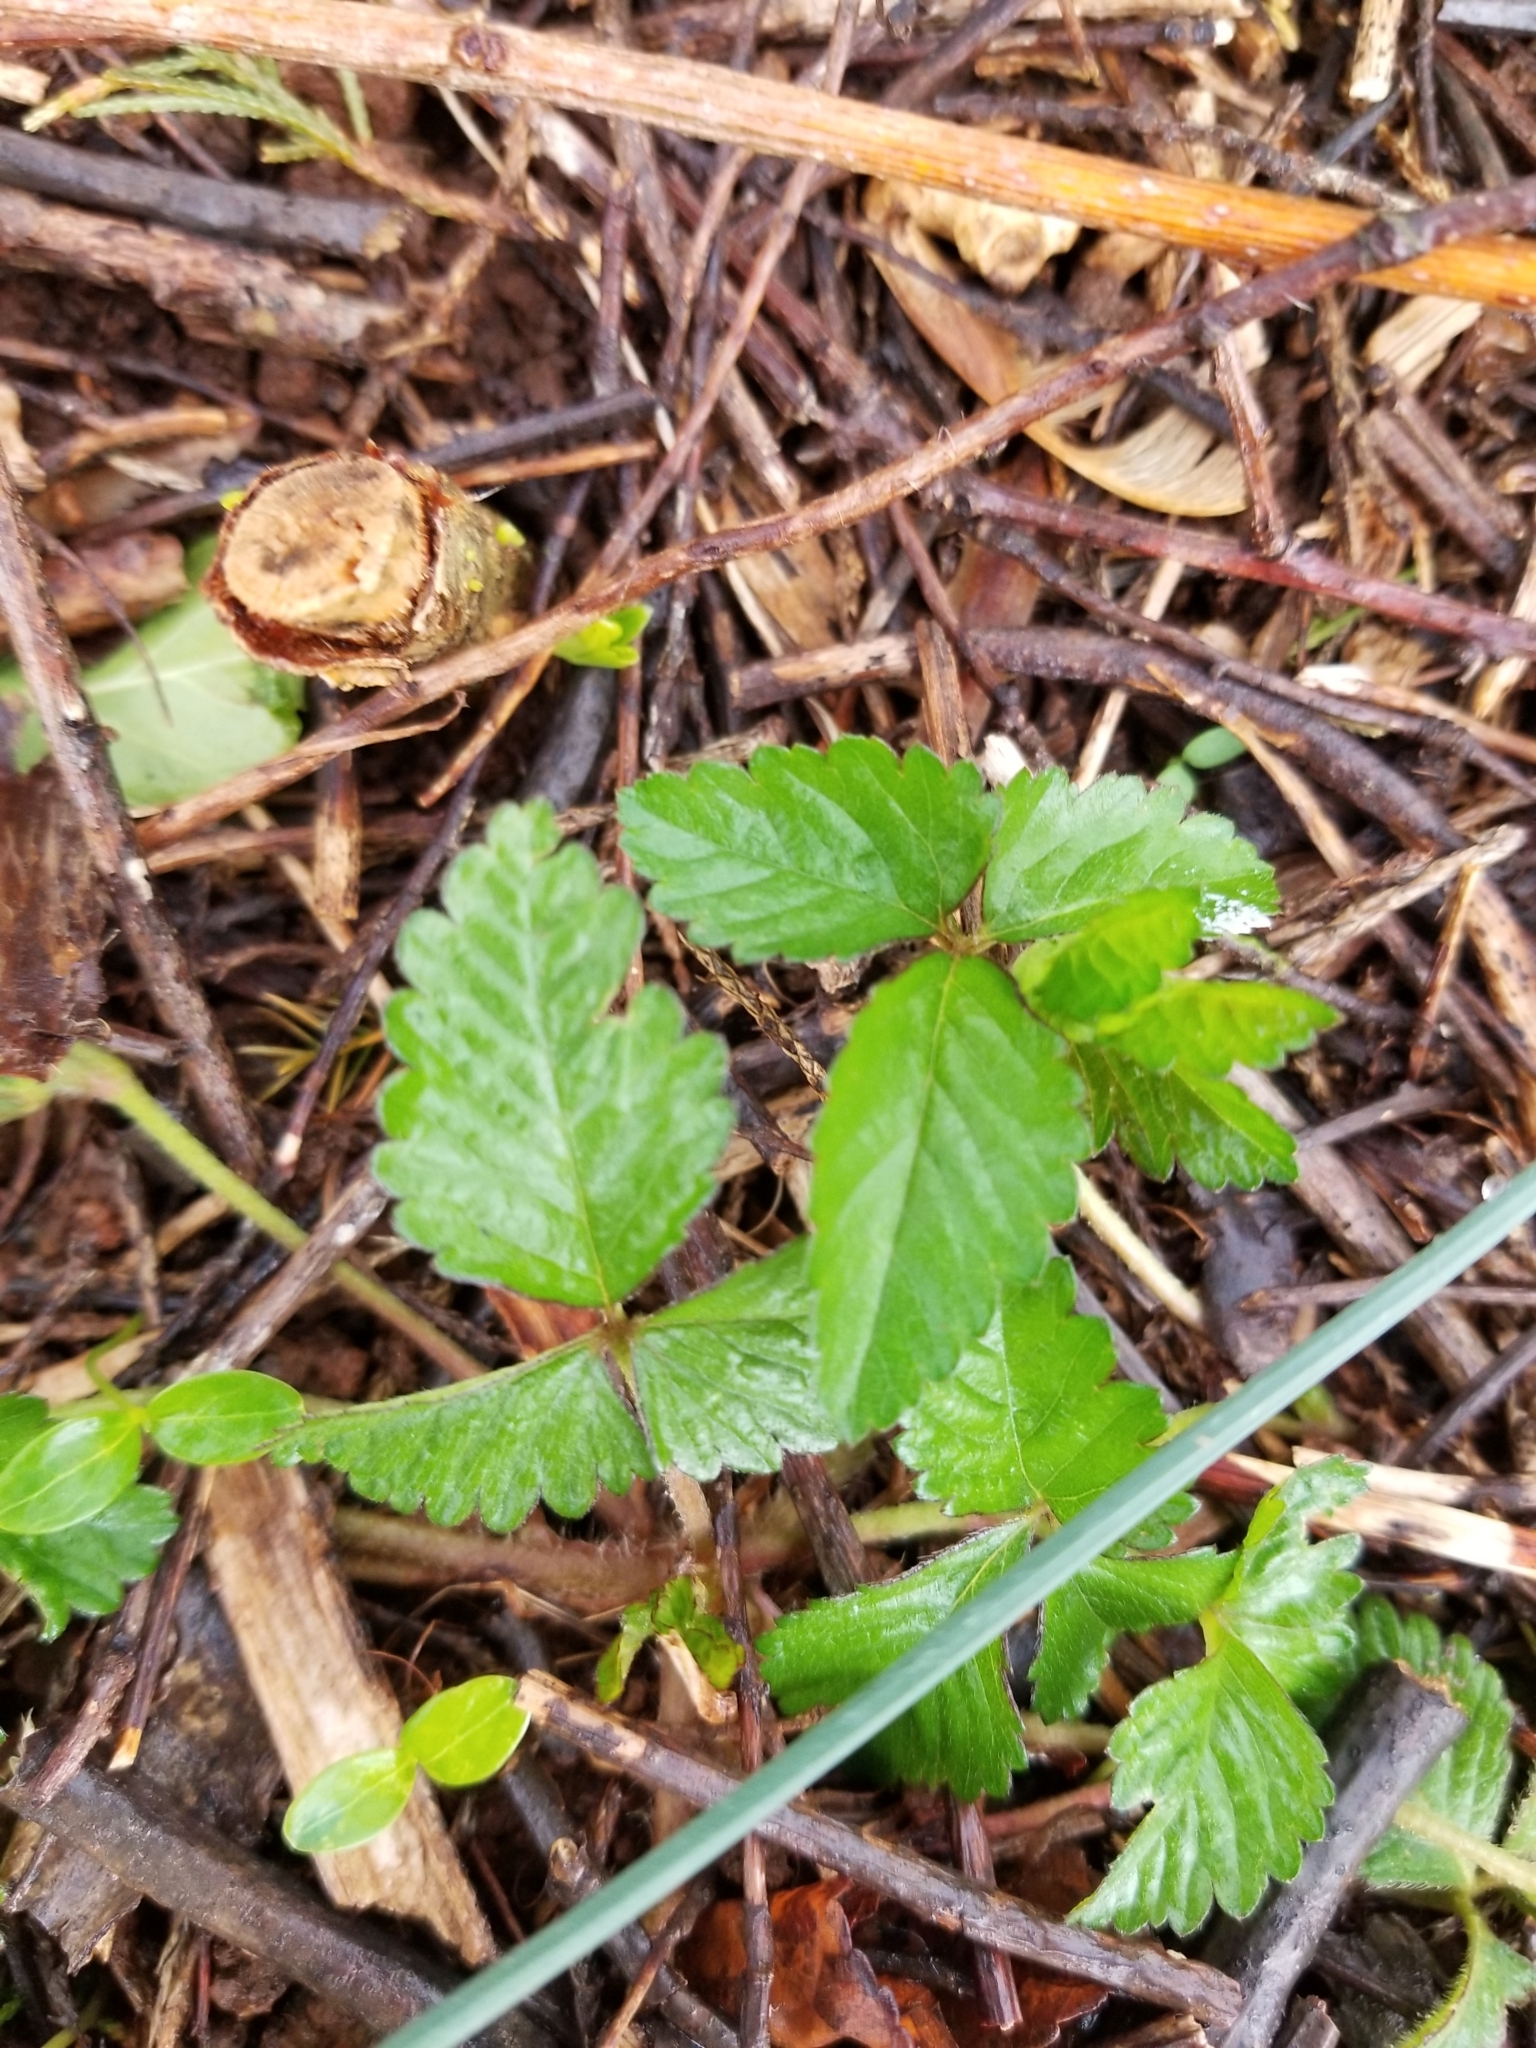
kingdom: Plantae
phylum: Tracheophyta
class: Magnoliopsida
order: Rosales
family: Rosaceae
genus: Potentilla
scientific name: Potentilla indica
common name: Yellow-flowered strawberry
